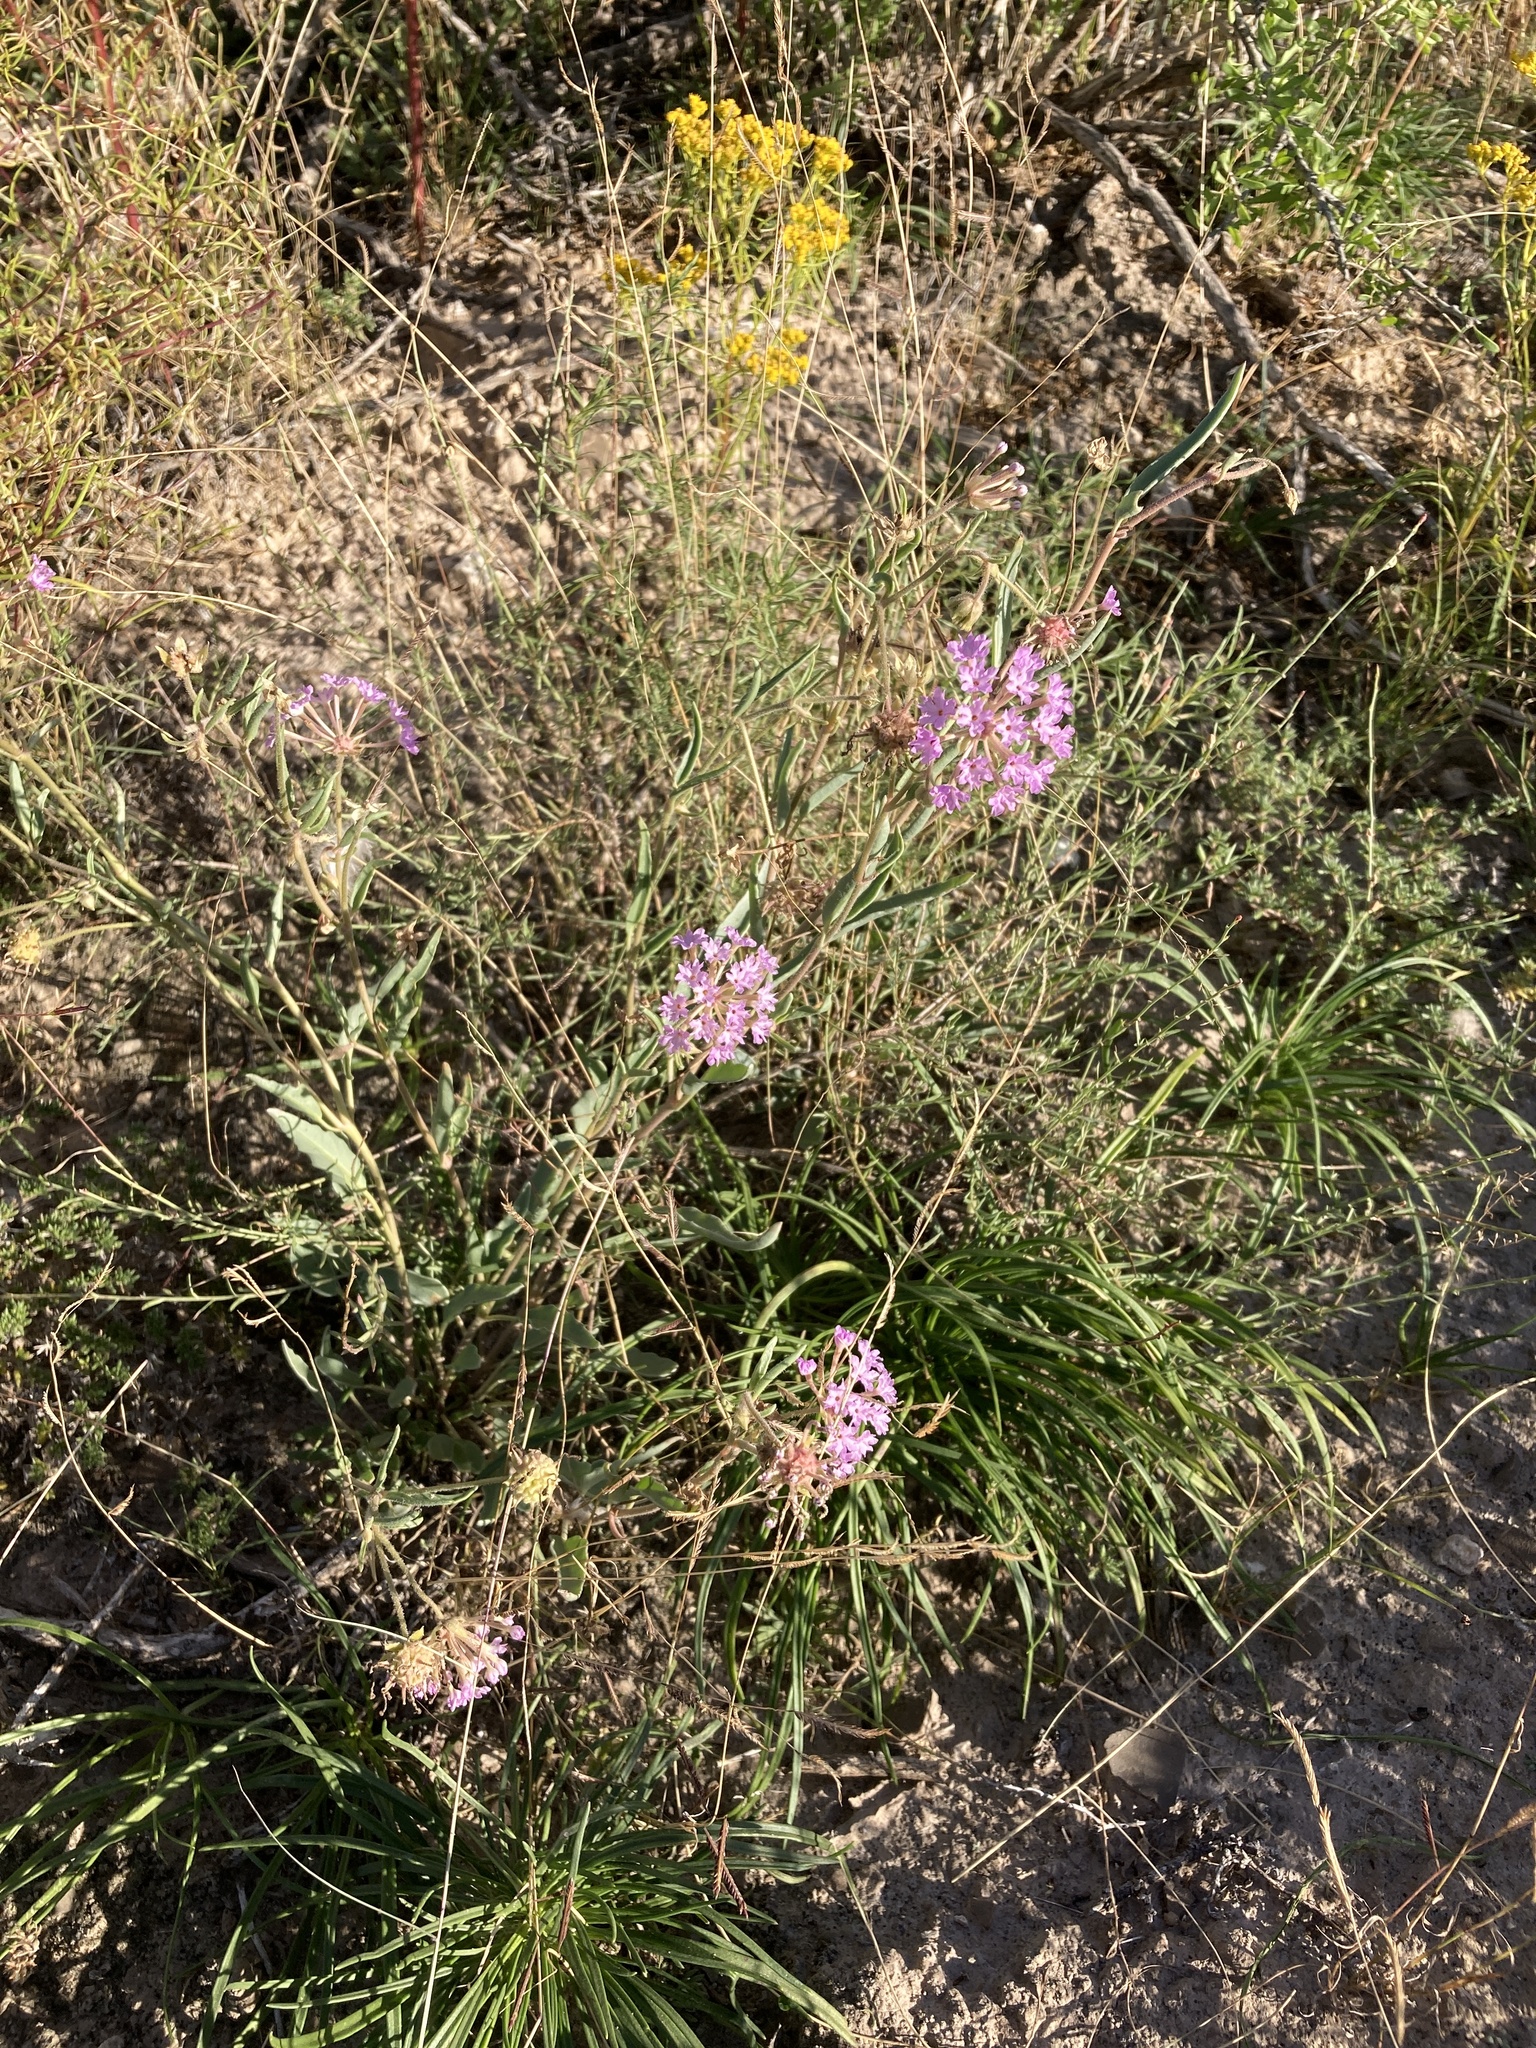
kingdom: Plantae
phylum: Tracheophyta
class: Magnoliopsida
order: Caryophyllales
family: Nyctaginaceae
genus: Abronia
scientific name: Abronia carletonii
